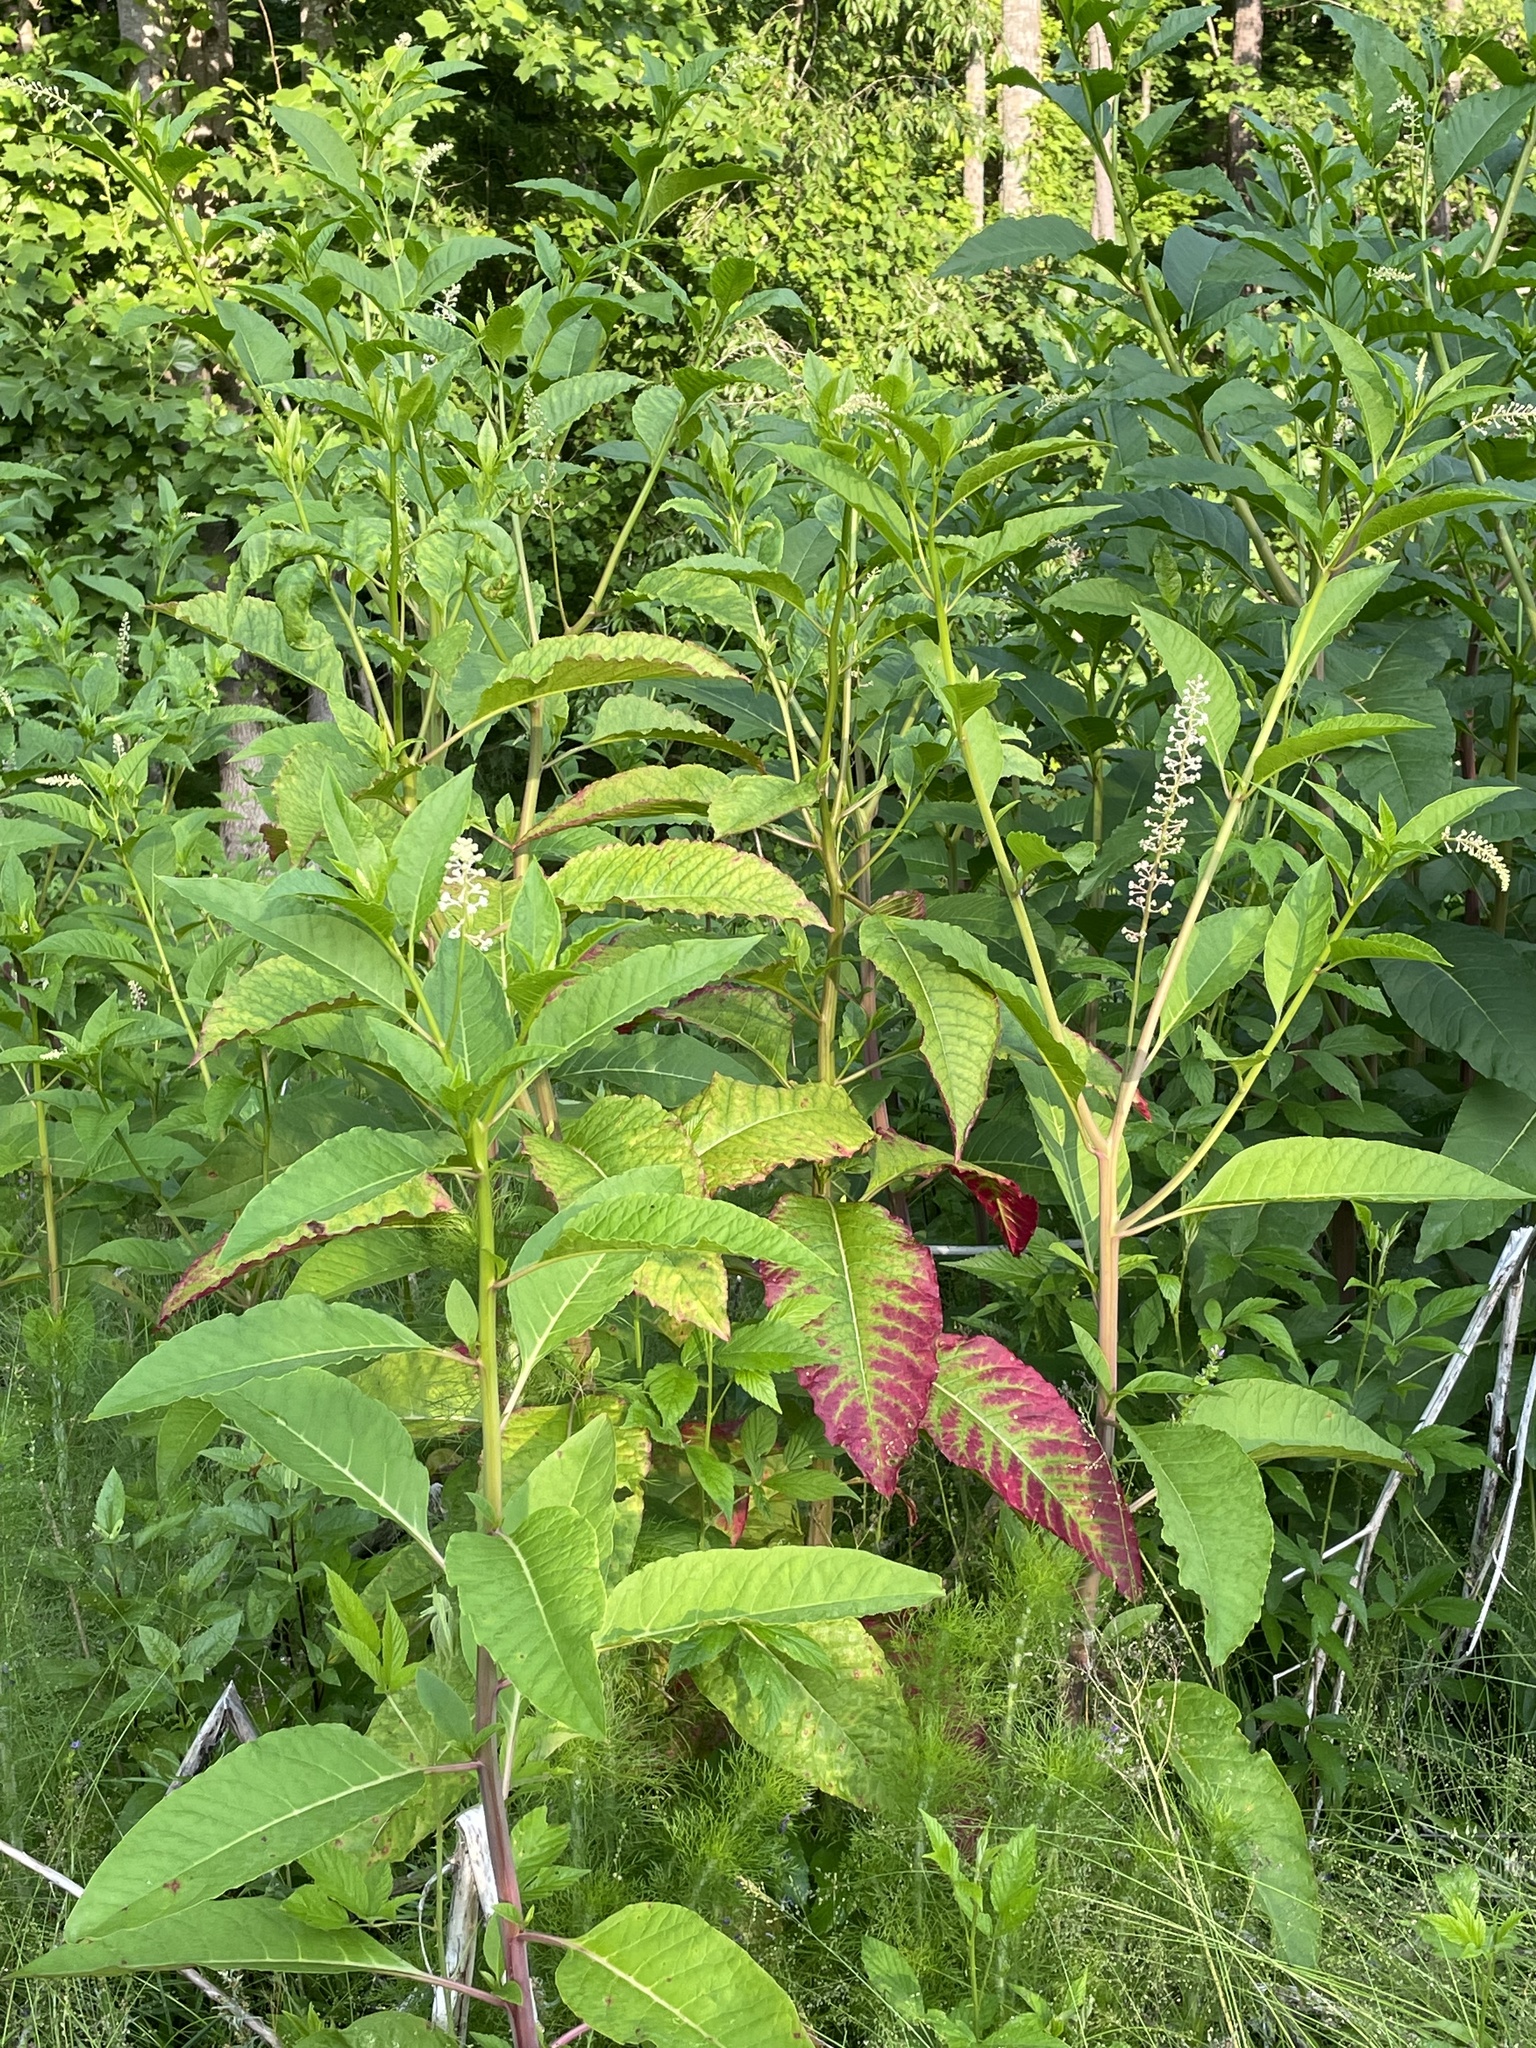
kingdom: Plantae
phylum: Tracheophyta
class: Magnoliopsida
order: Caryophyllales
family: Phytolaccaceae
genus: Phytolacca
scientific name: Phytolacca americana
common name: American pokeweed
